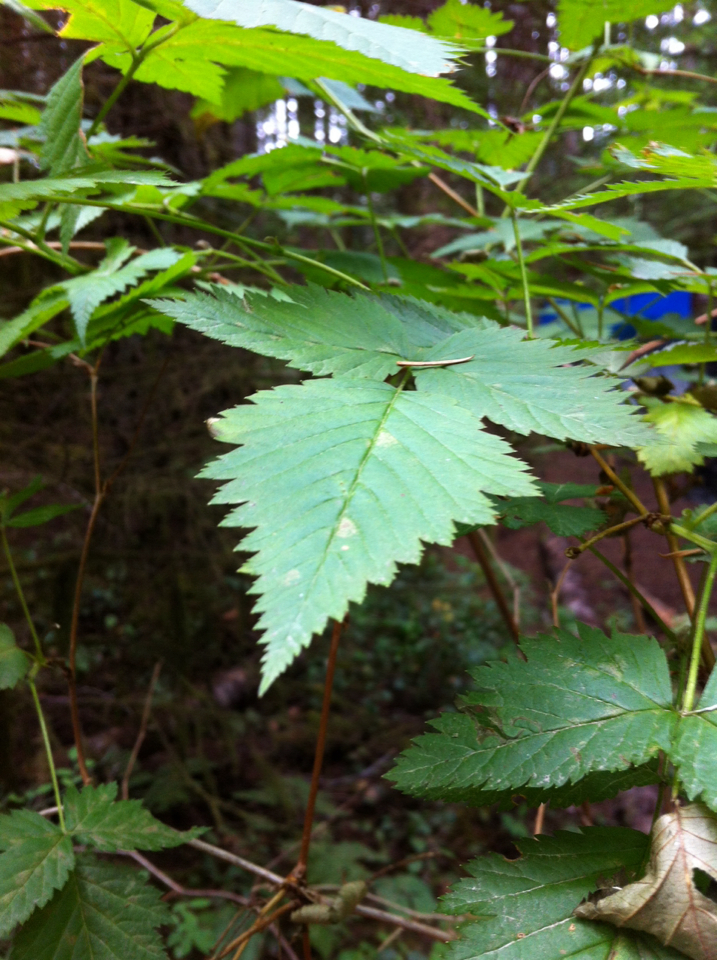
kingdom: Plantae
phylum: Tracheophyta
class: Magnoliopsida
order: Rosales
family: Rosaceae
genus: Rubus
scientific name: Rubus spectabilis
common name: Salmonberry
